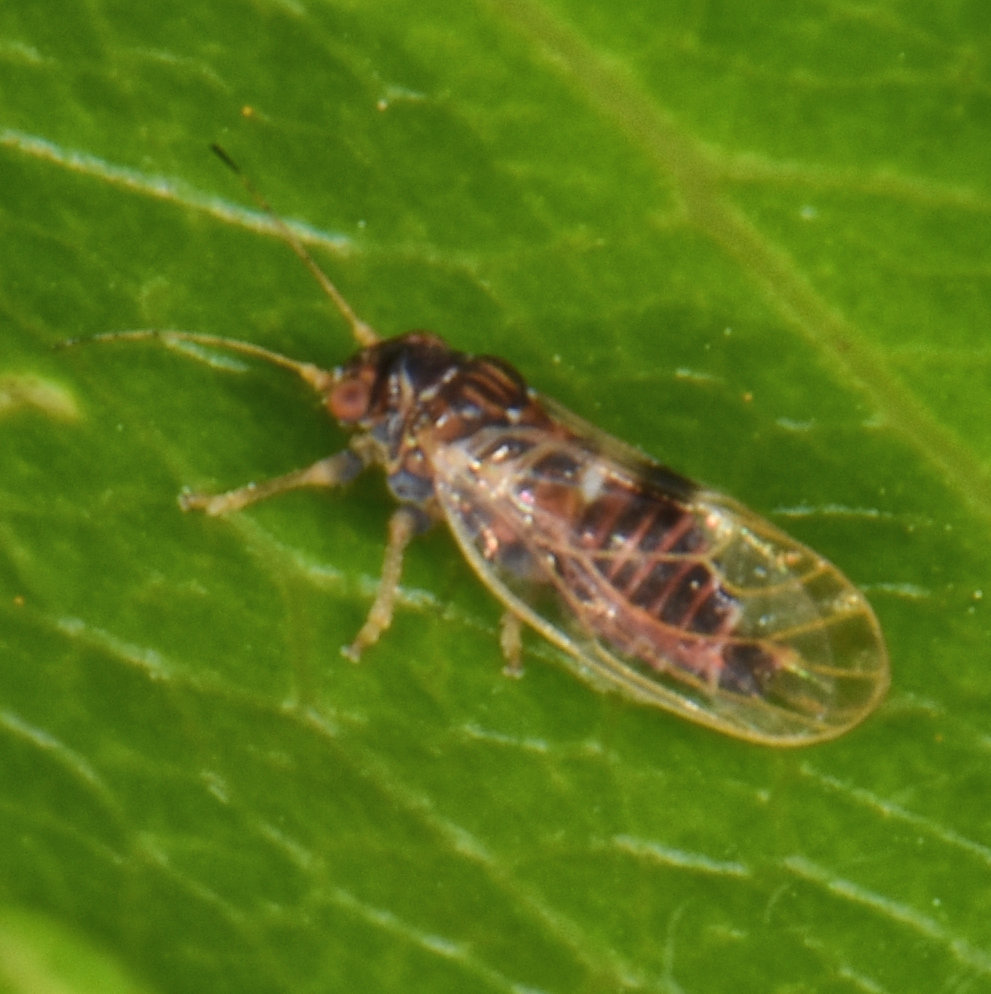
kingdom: Animalia
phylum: Arthropoda
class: Insecta
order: Hemiptera
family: Psyllidae
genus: Cacopsylla
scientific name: Cacopsylla pyricola
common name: Pear psylla
